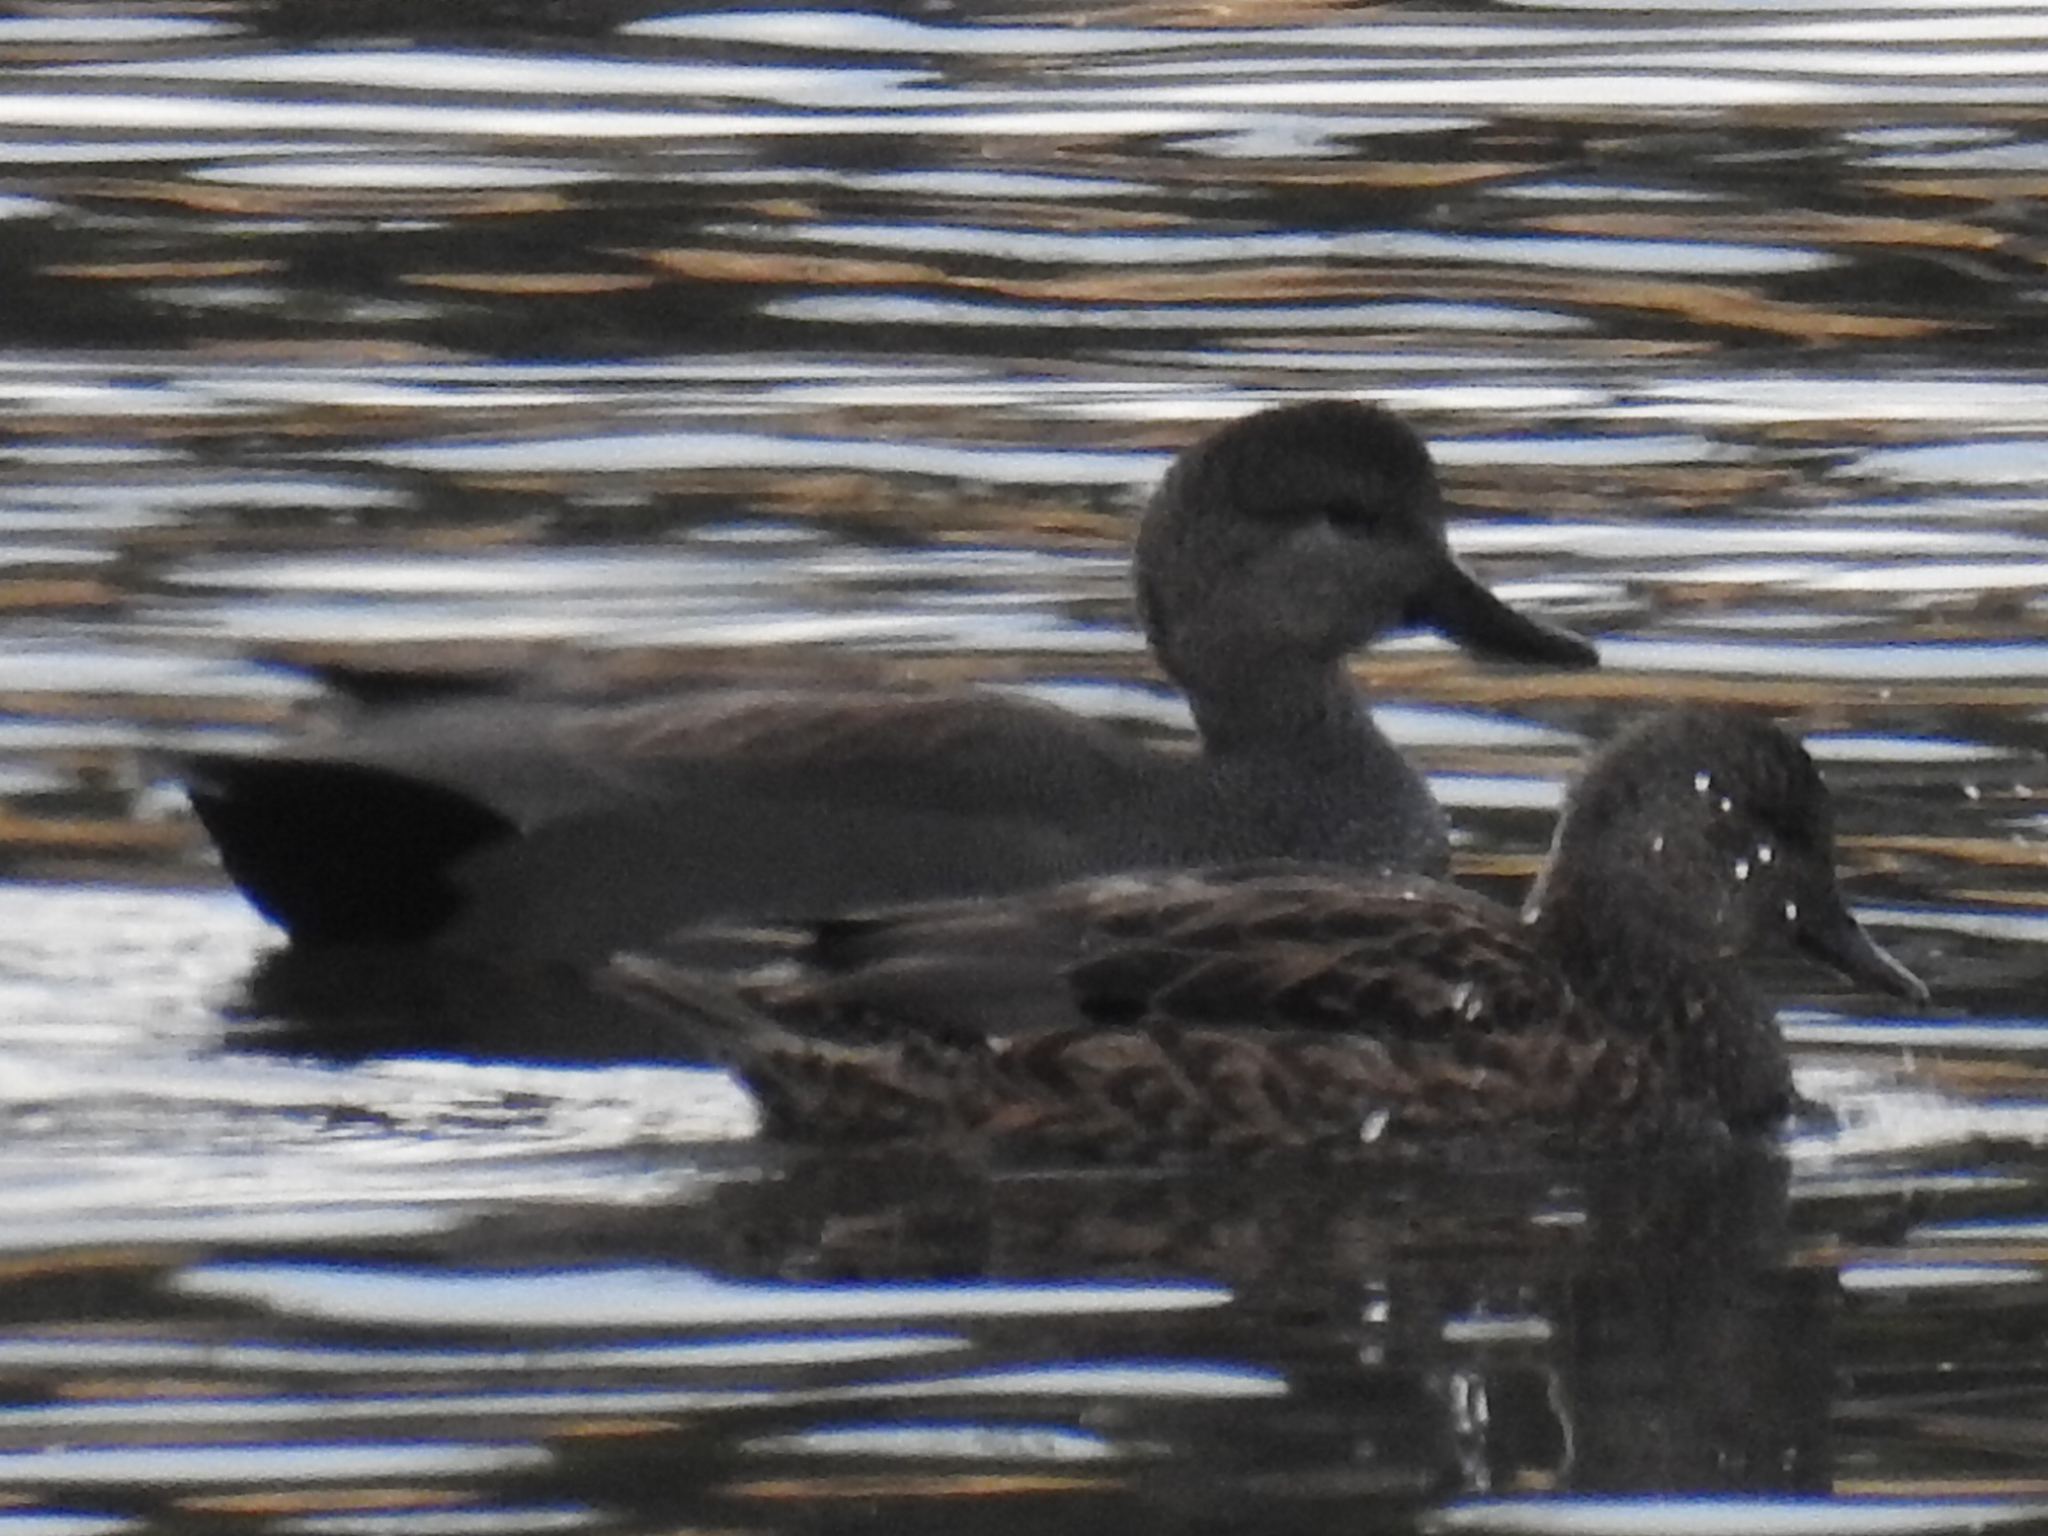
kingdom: Animalia
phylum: Chordata
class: Aves
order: Anseriformes
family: Anatidae
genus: Mareca
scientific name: Mareca strepera
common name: Gadwall
